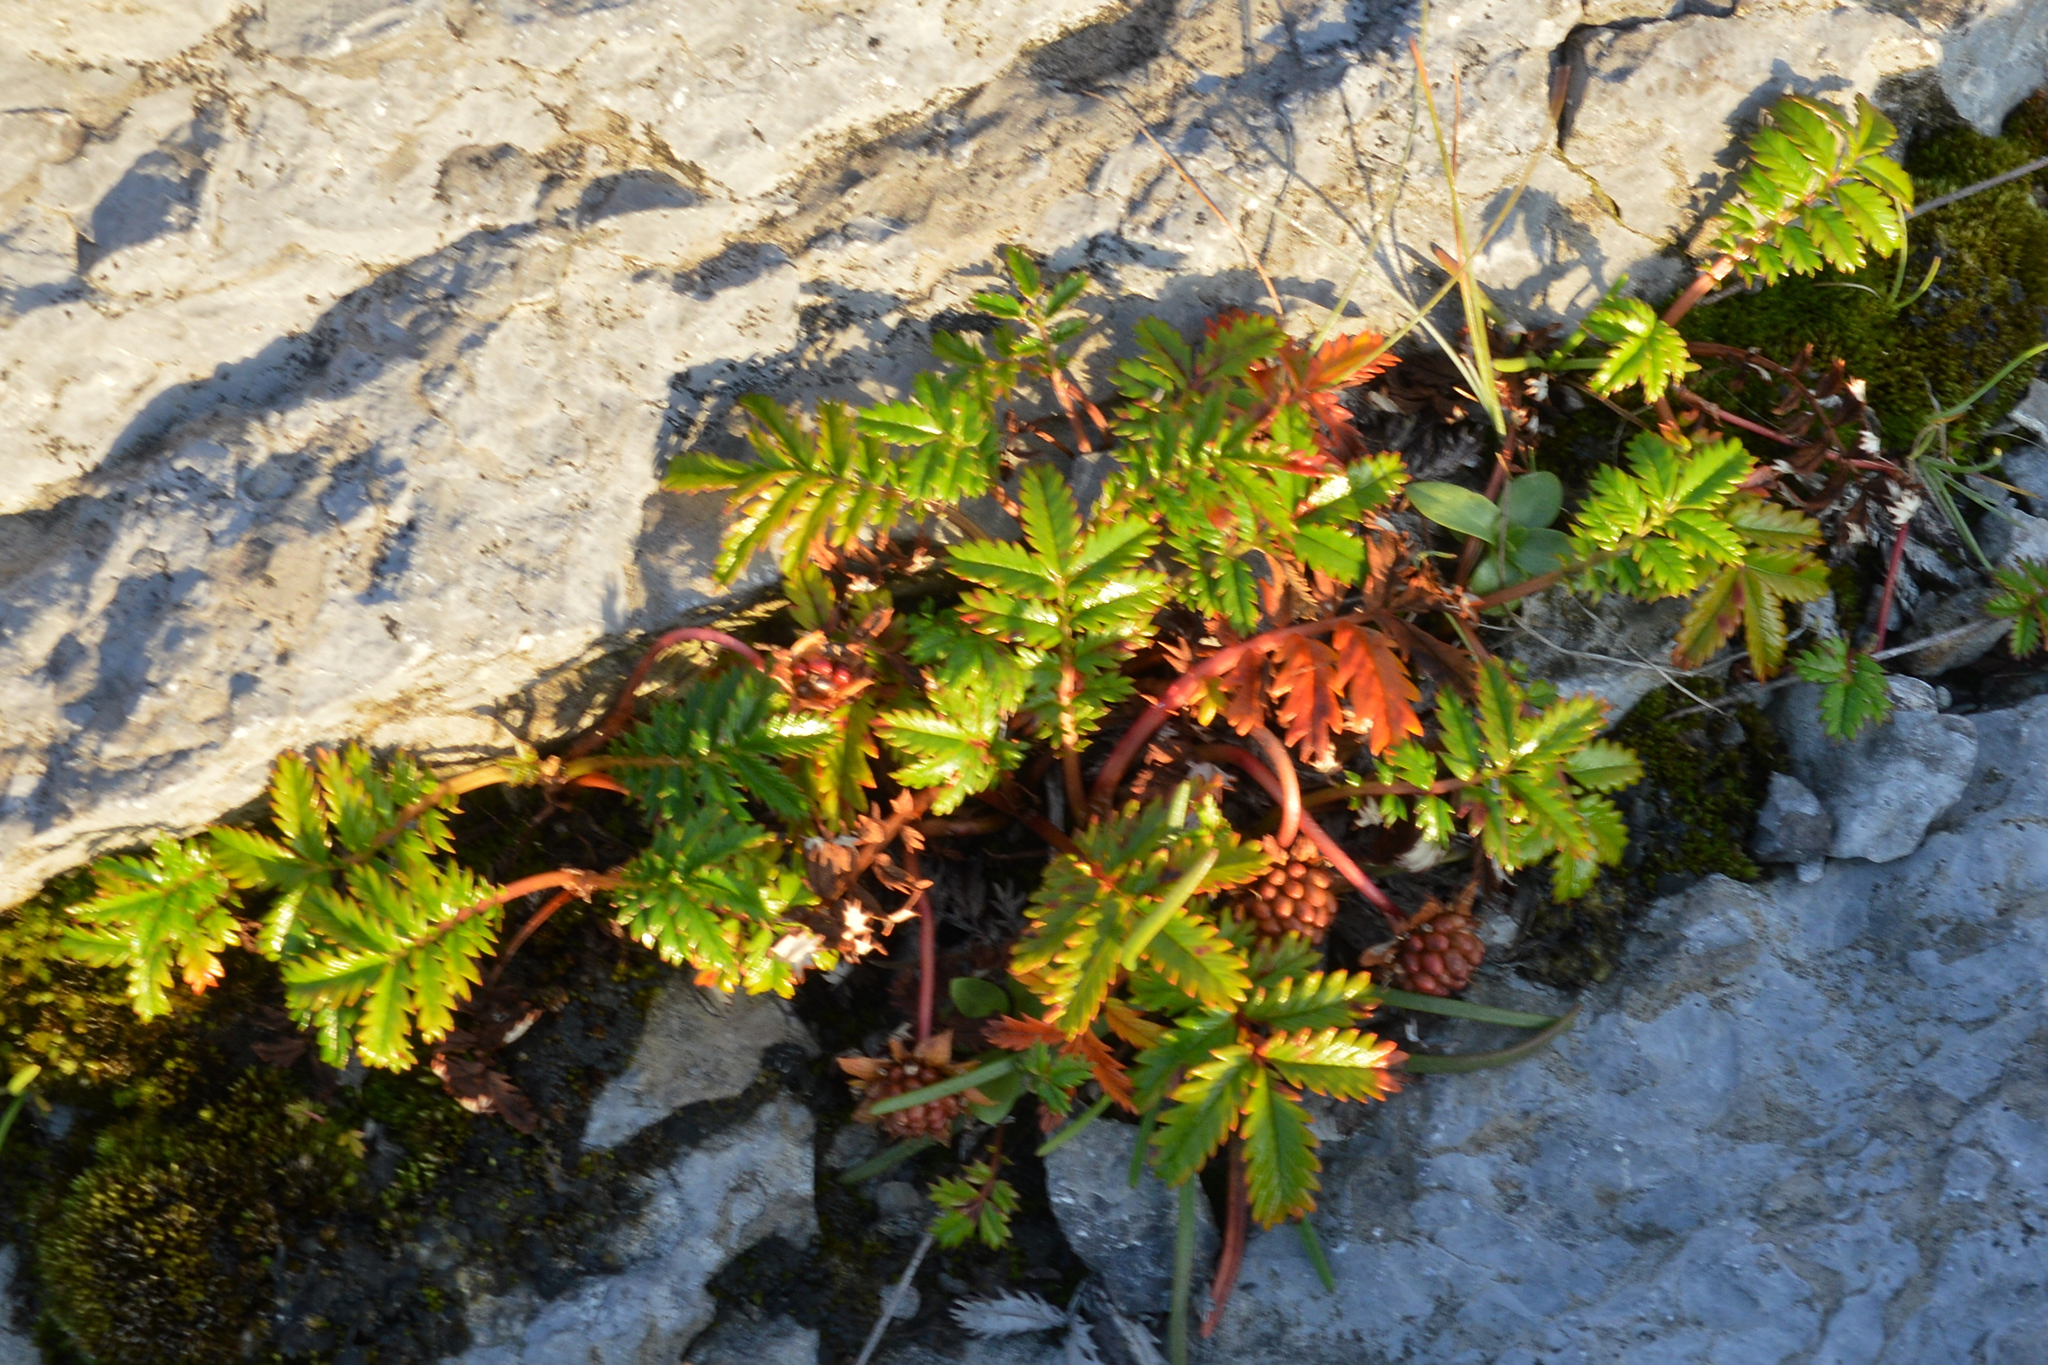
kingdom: Plantae
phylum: Tracheophyta
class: Magnoliopsida
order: Rosales
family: Rosaceae
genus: Argentina
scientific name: Argentina anserina
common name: Common silverweed
